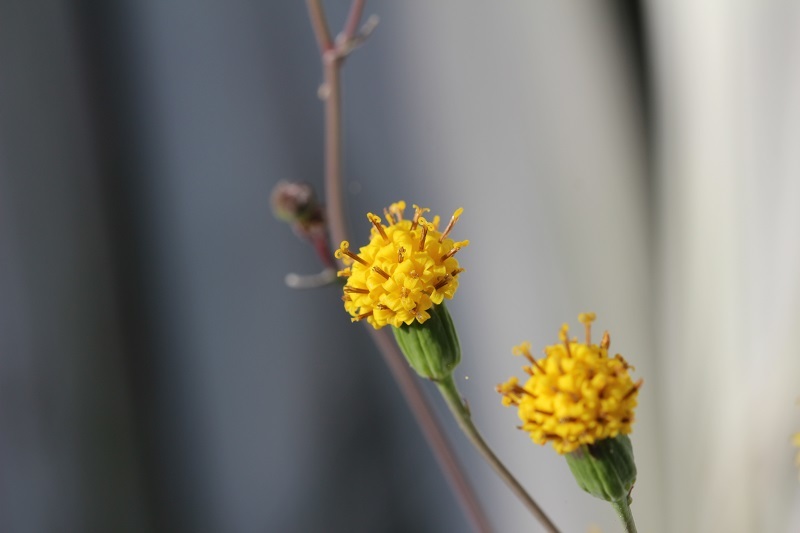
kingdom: Plantae
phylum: Tracheophyta
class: Magnoliopsida
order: Asterales
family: Asteraceae
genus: Senecio
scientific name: Senecio othonniflorus
